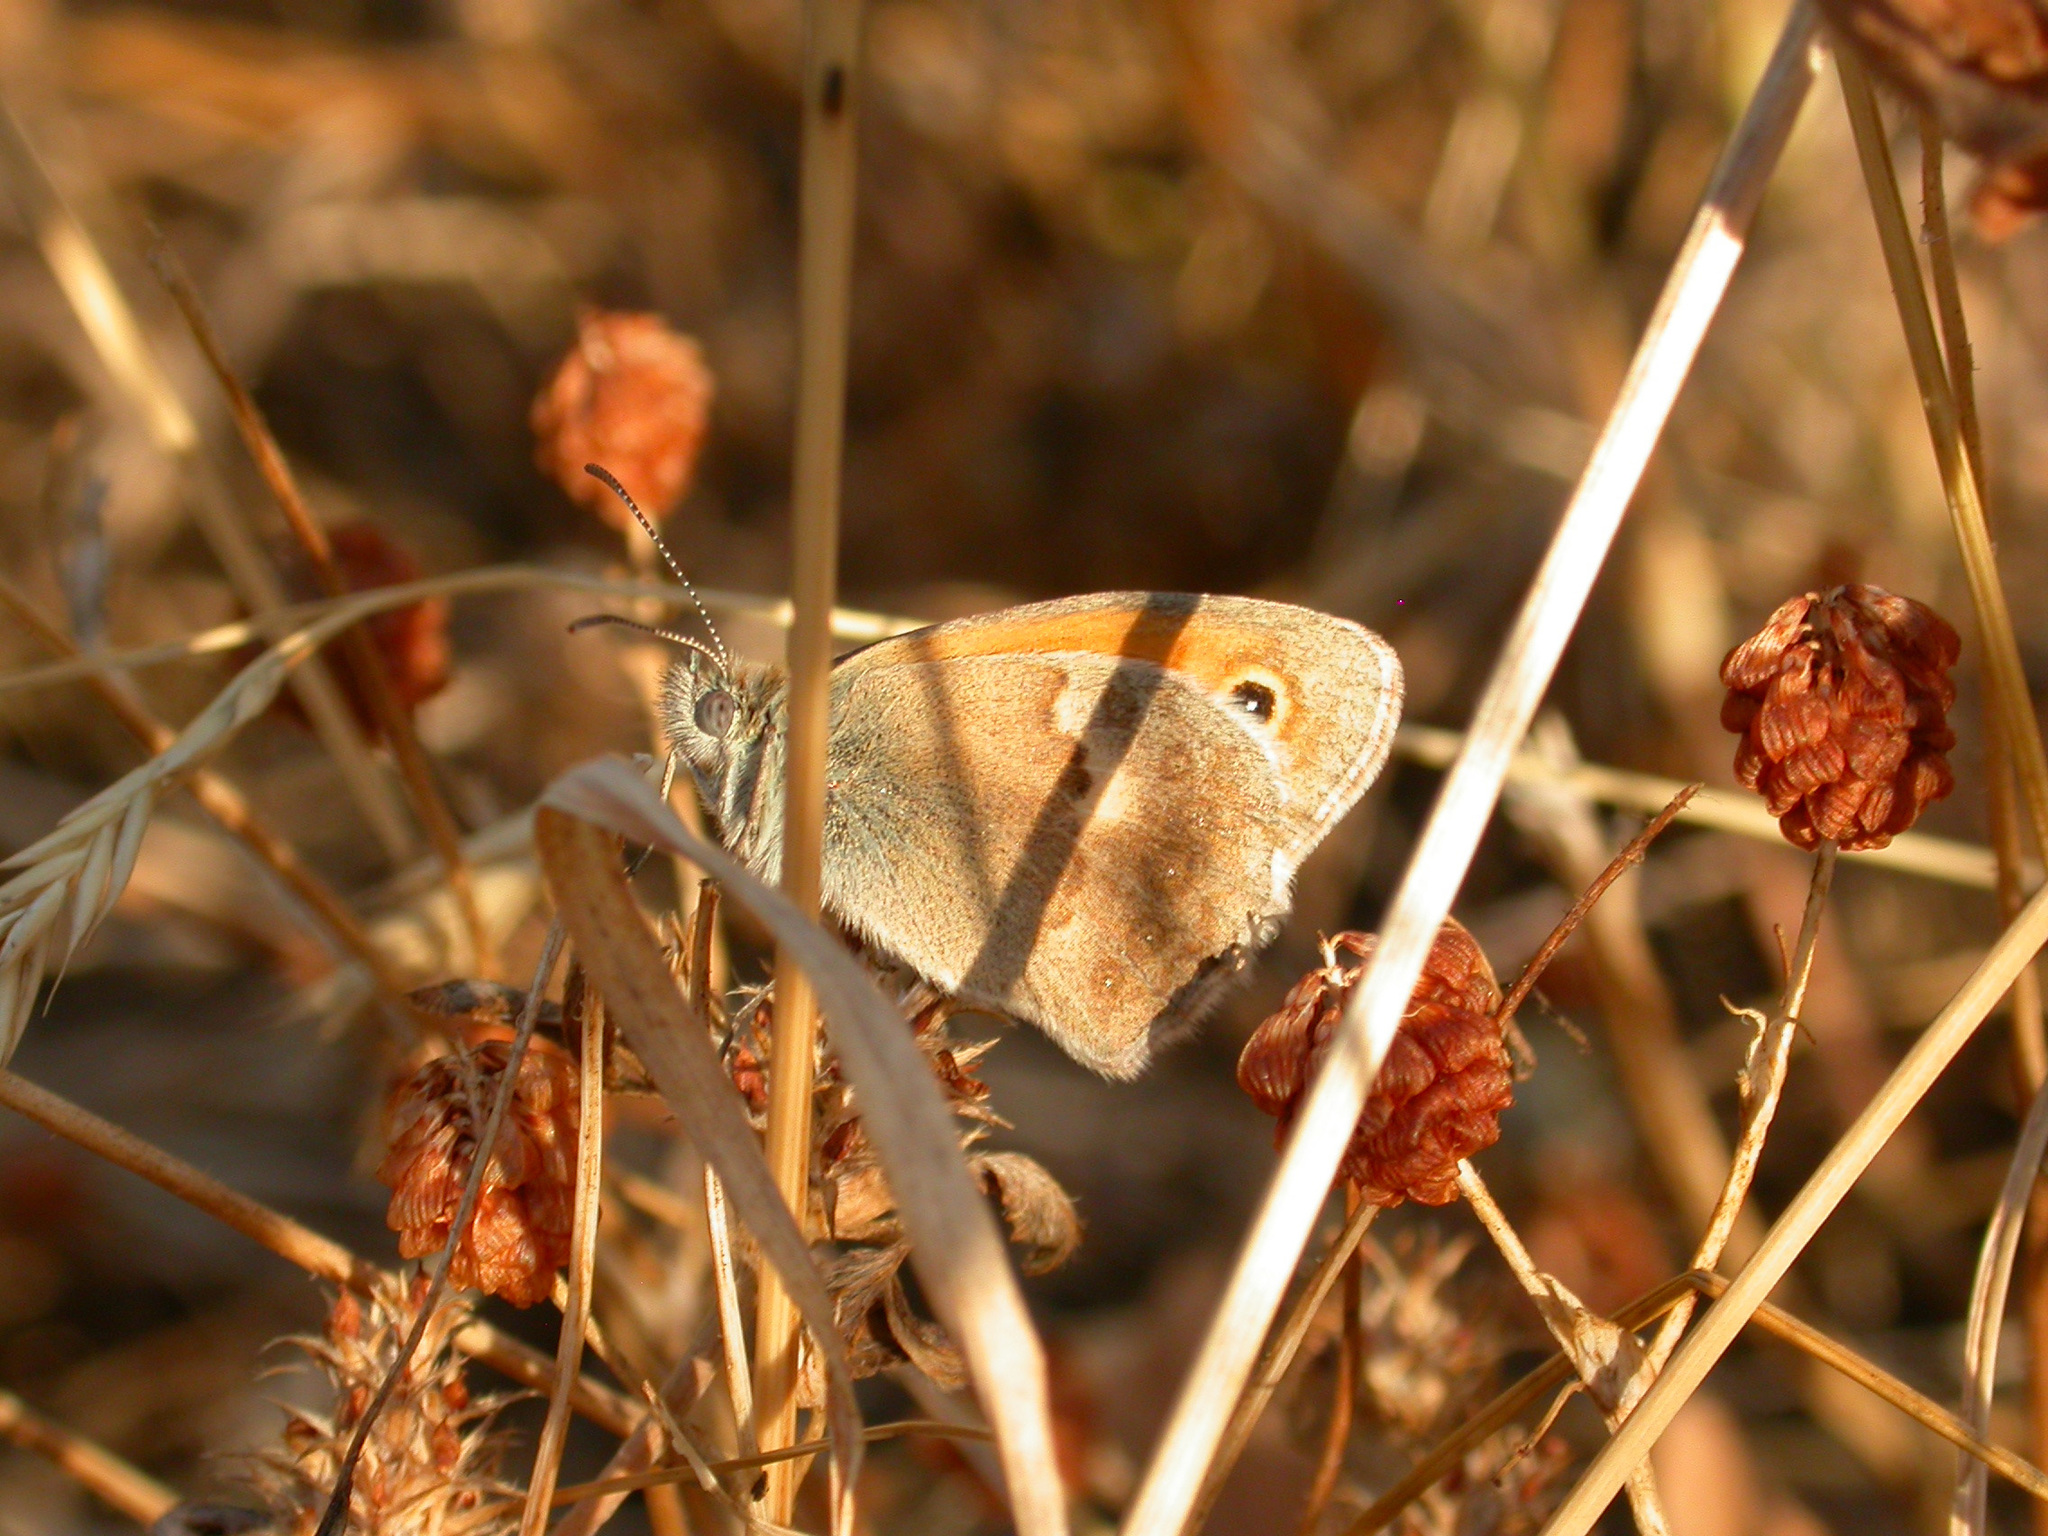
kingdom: Animalia
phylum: Arthropoda
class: Insecta
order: Lepidoptera
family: Nymphalidae
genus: Coenonympha
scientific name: Coenonympha pamphilus
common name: Small heath
